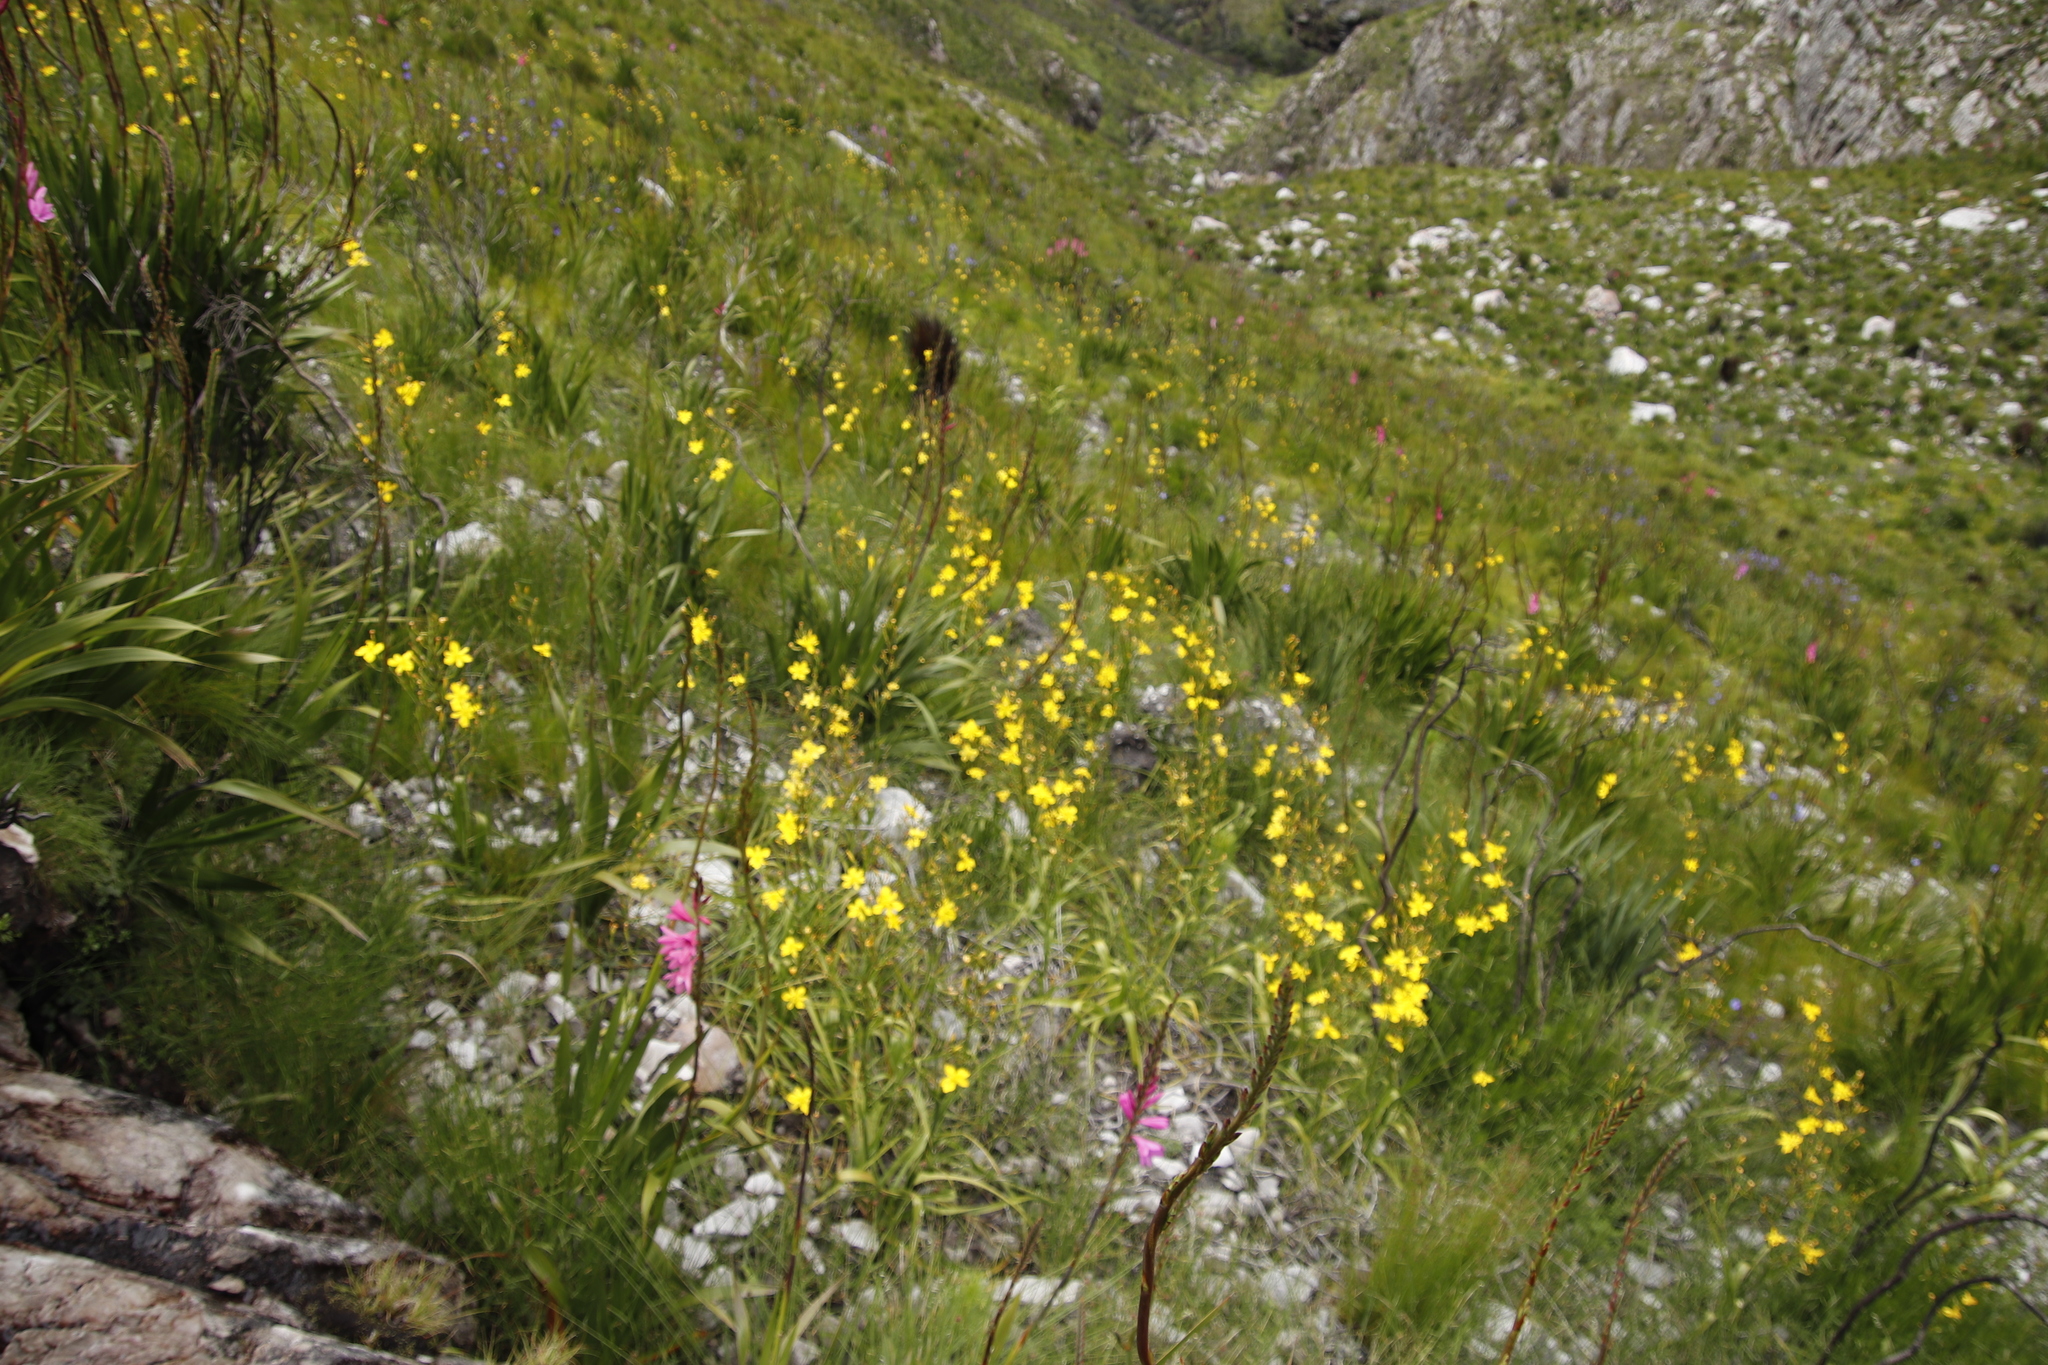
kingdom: Plantae
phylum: Tracheophyta
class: Liliopsida
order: Asparagales
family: Iridaceae
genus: Moraea
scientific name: Moraea ramosissima
